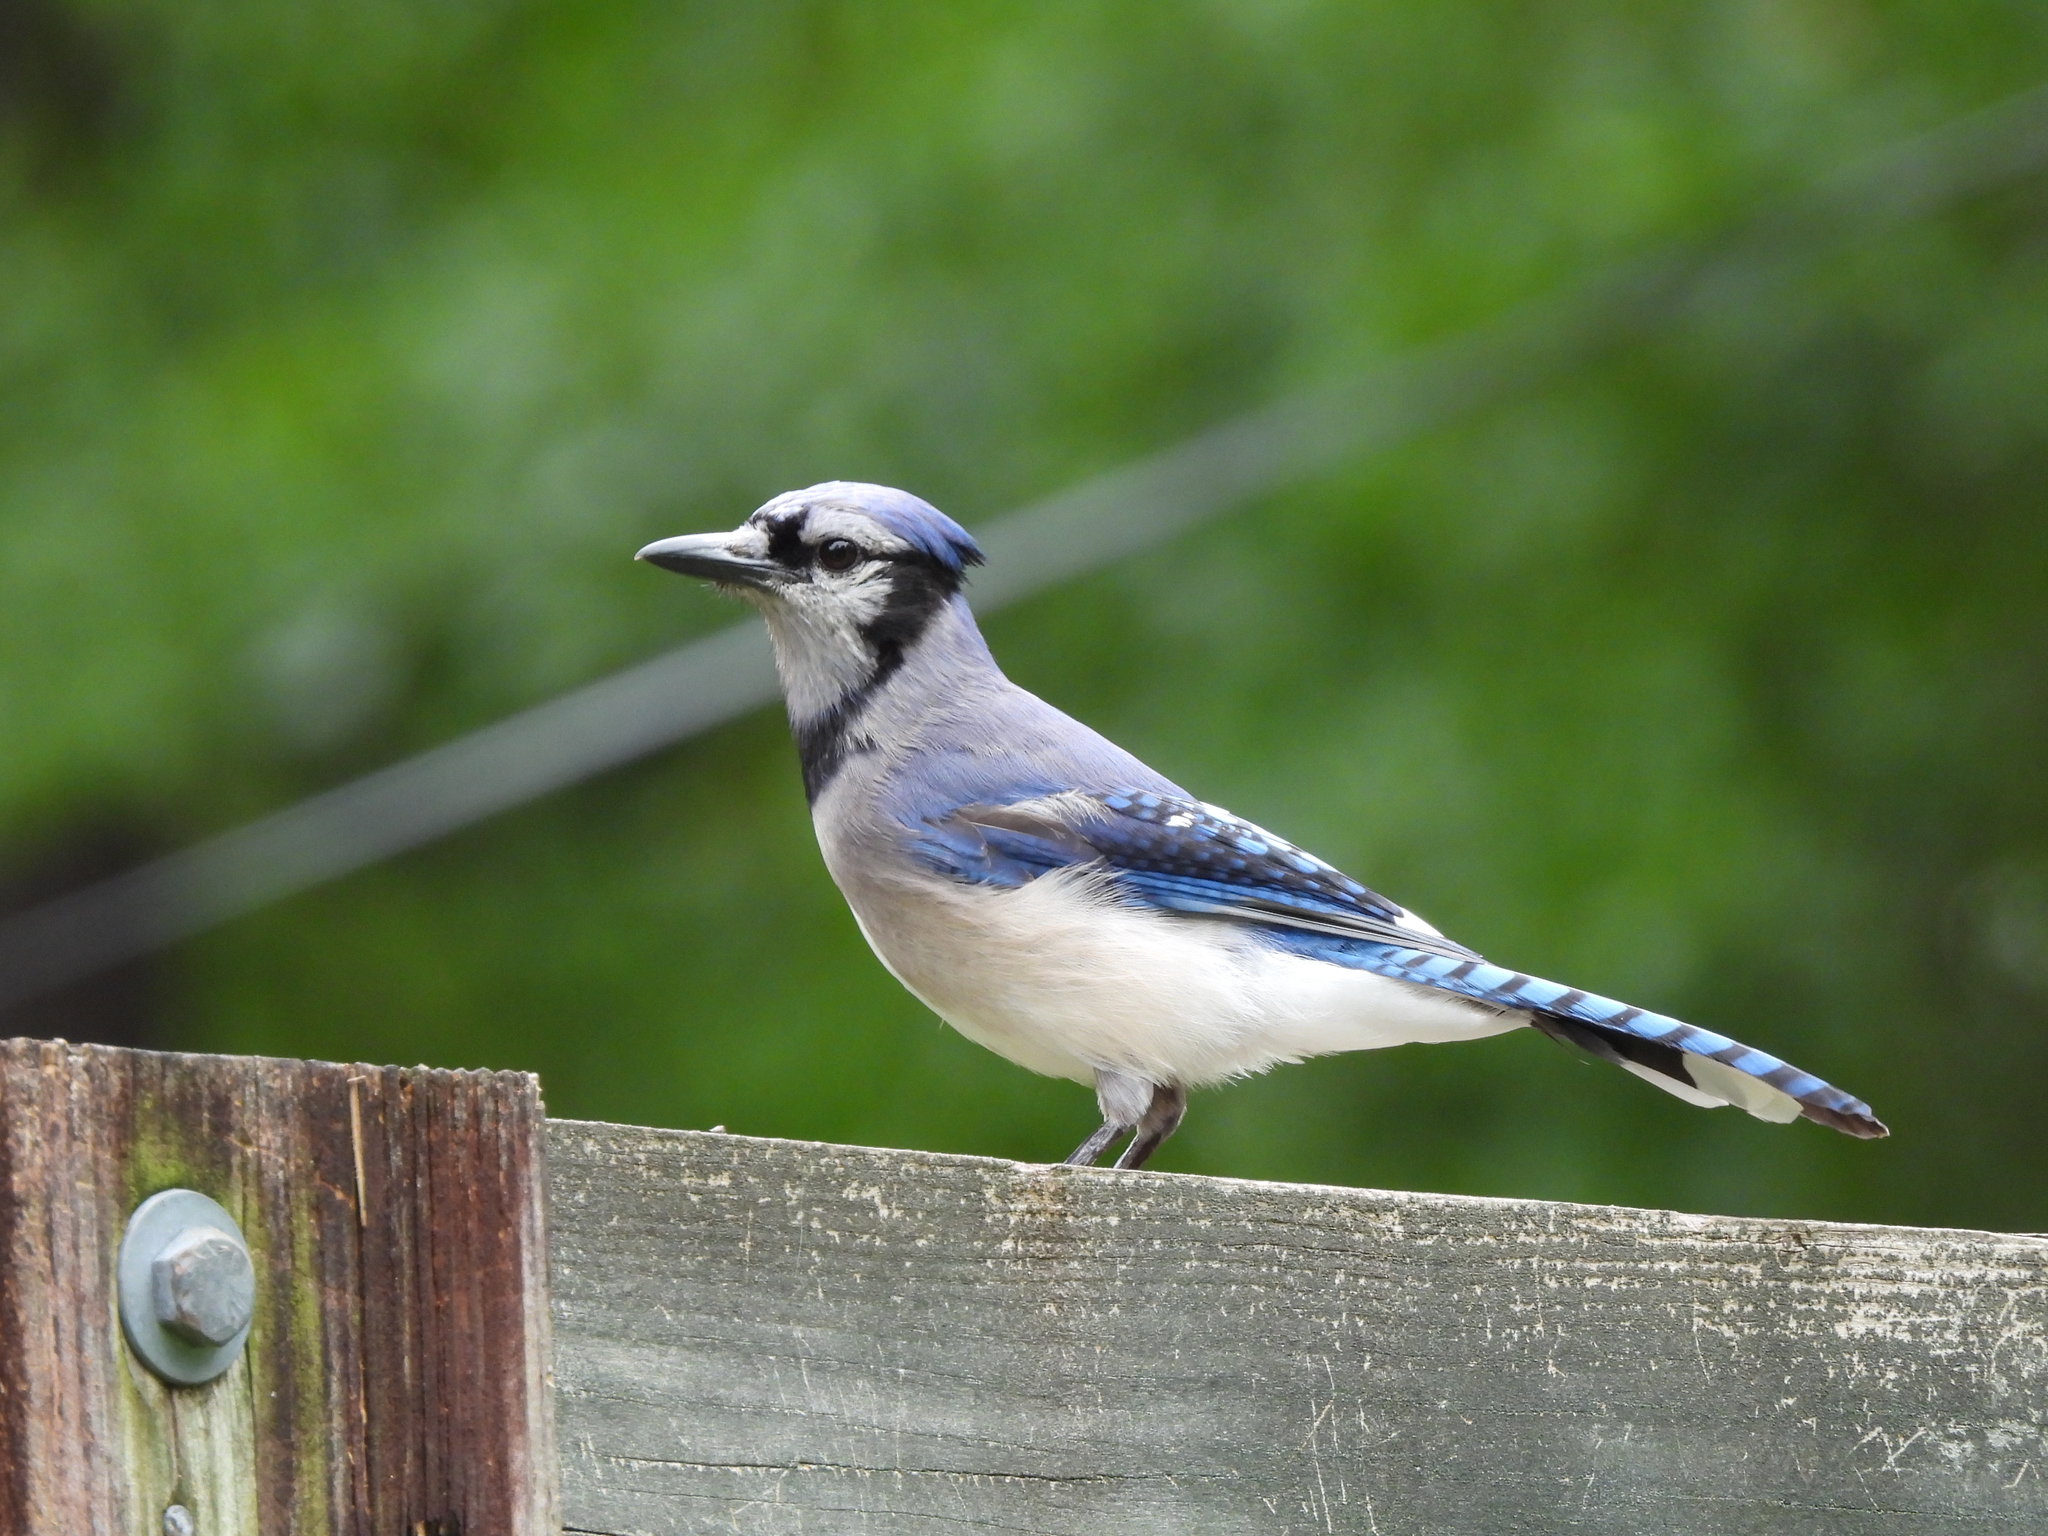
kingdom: Animalia
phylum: Chordata
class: Aves
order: Passeriformes
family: Corvidae
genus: Cyanocitta
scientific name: Cyanocitta cristata
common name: Blue jay
